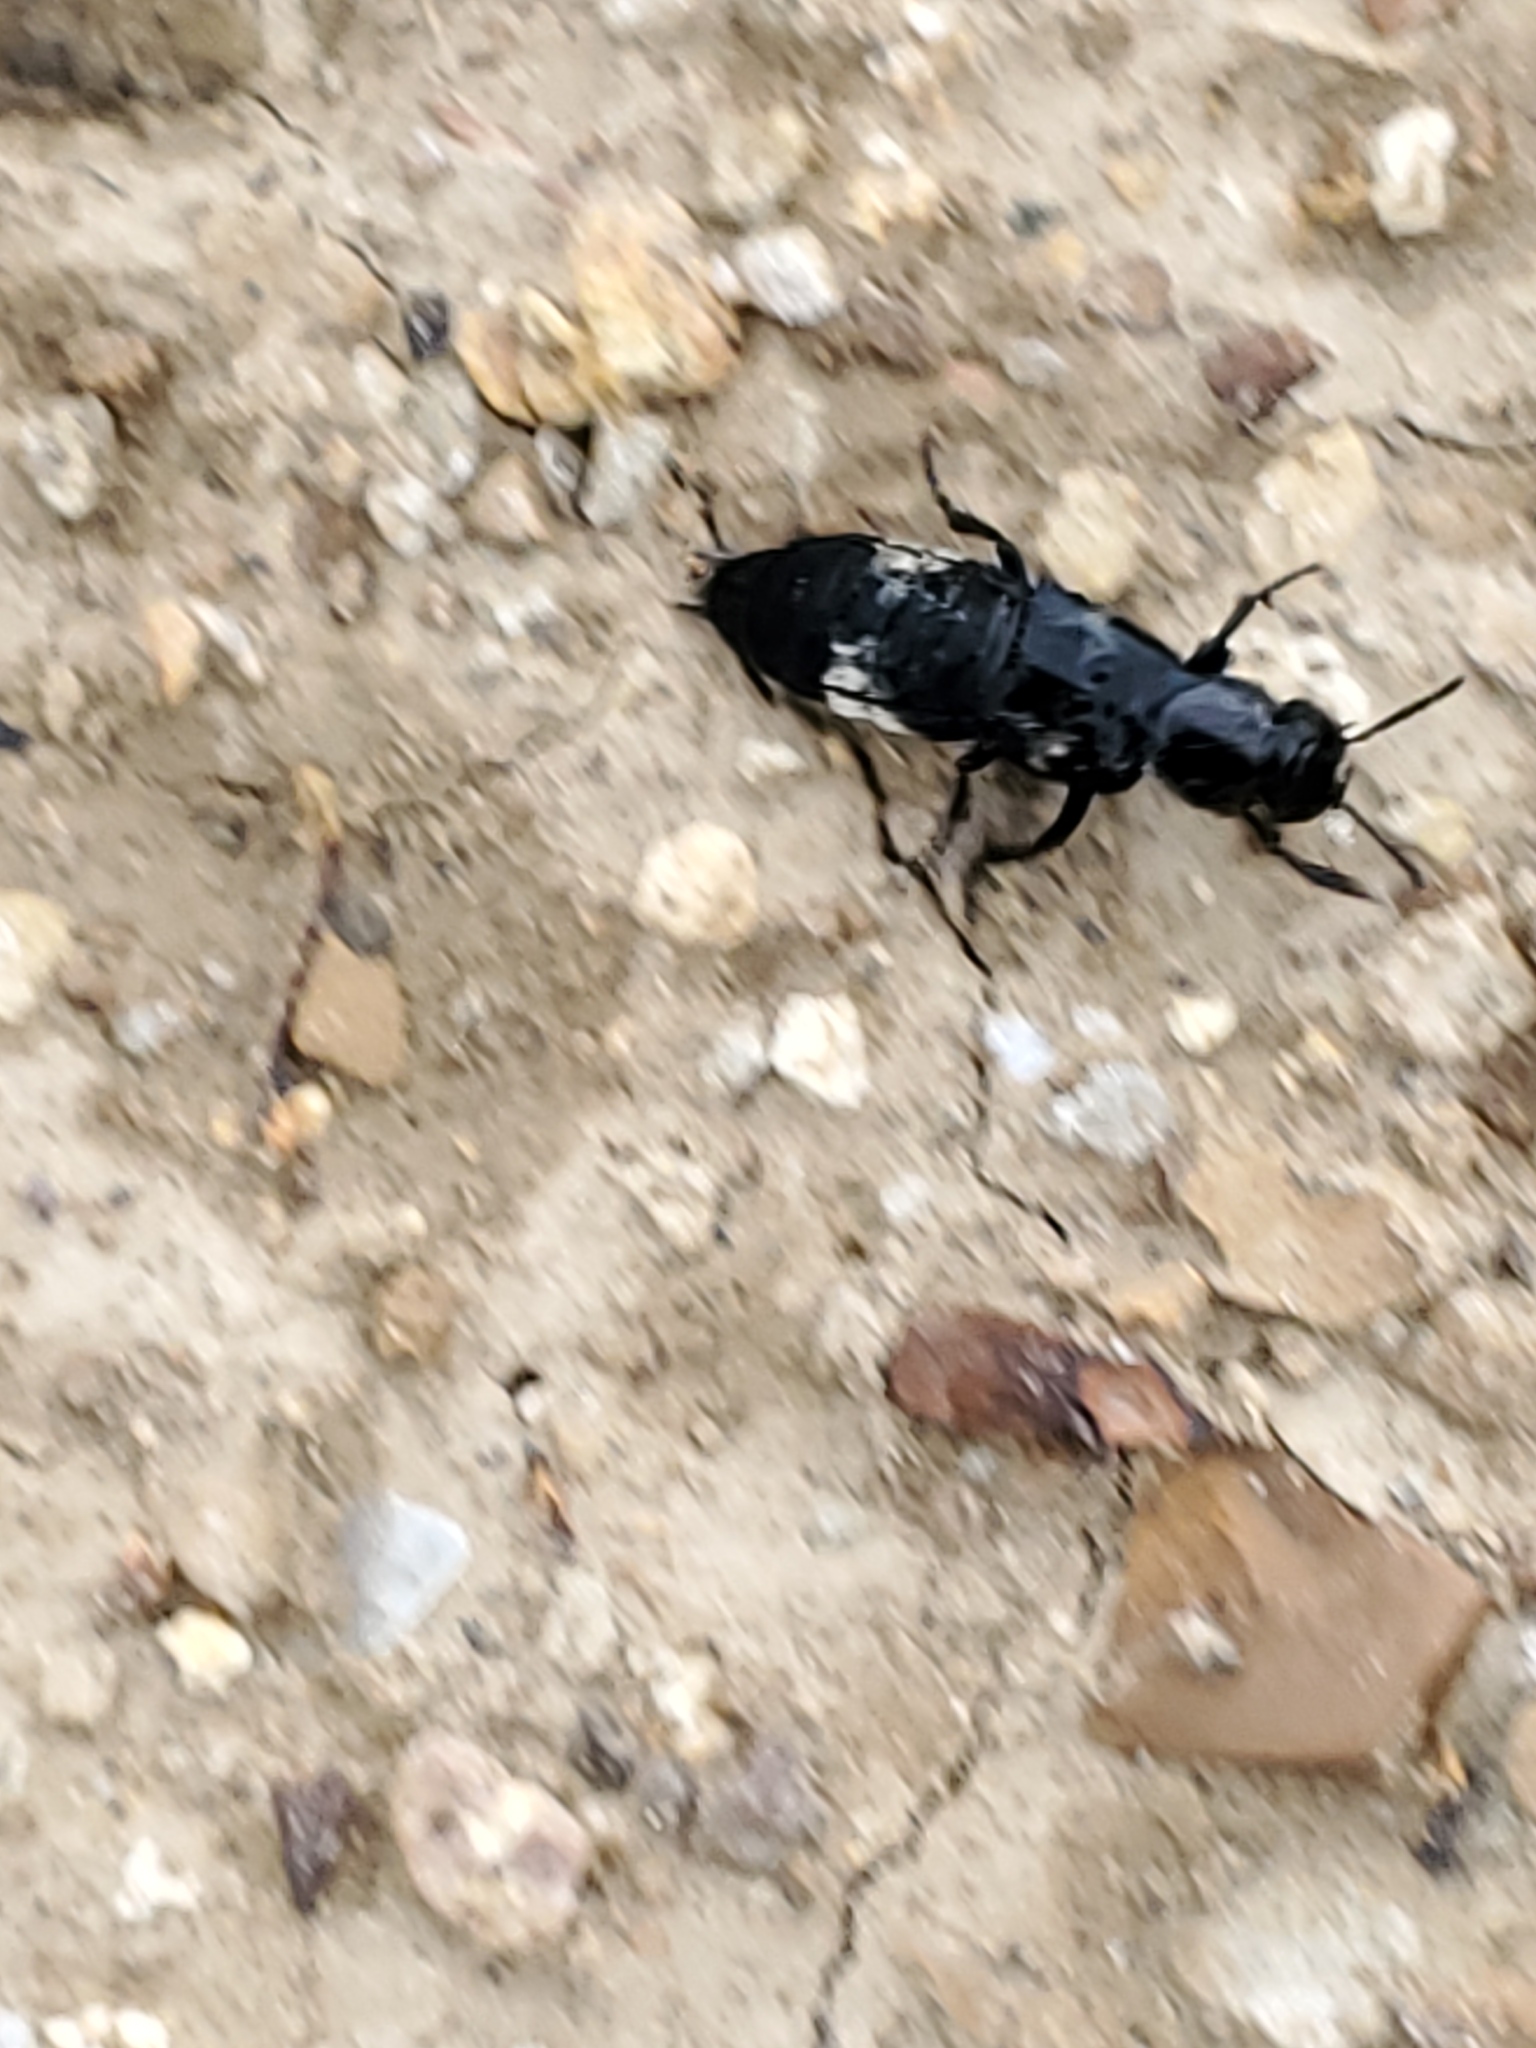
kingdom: Animalia
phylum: Arthropoda
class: Insecta
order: Coleoptera
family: Staphylinidae
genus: Creophilus
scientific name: Creophilus maxillosus
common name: Hairy rove beetle
